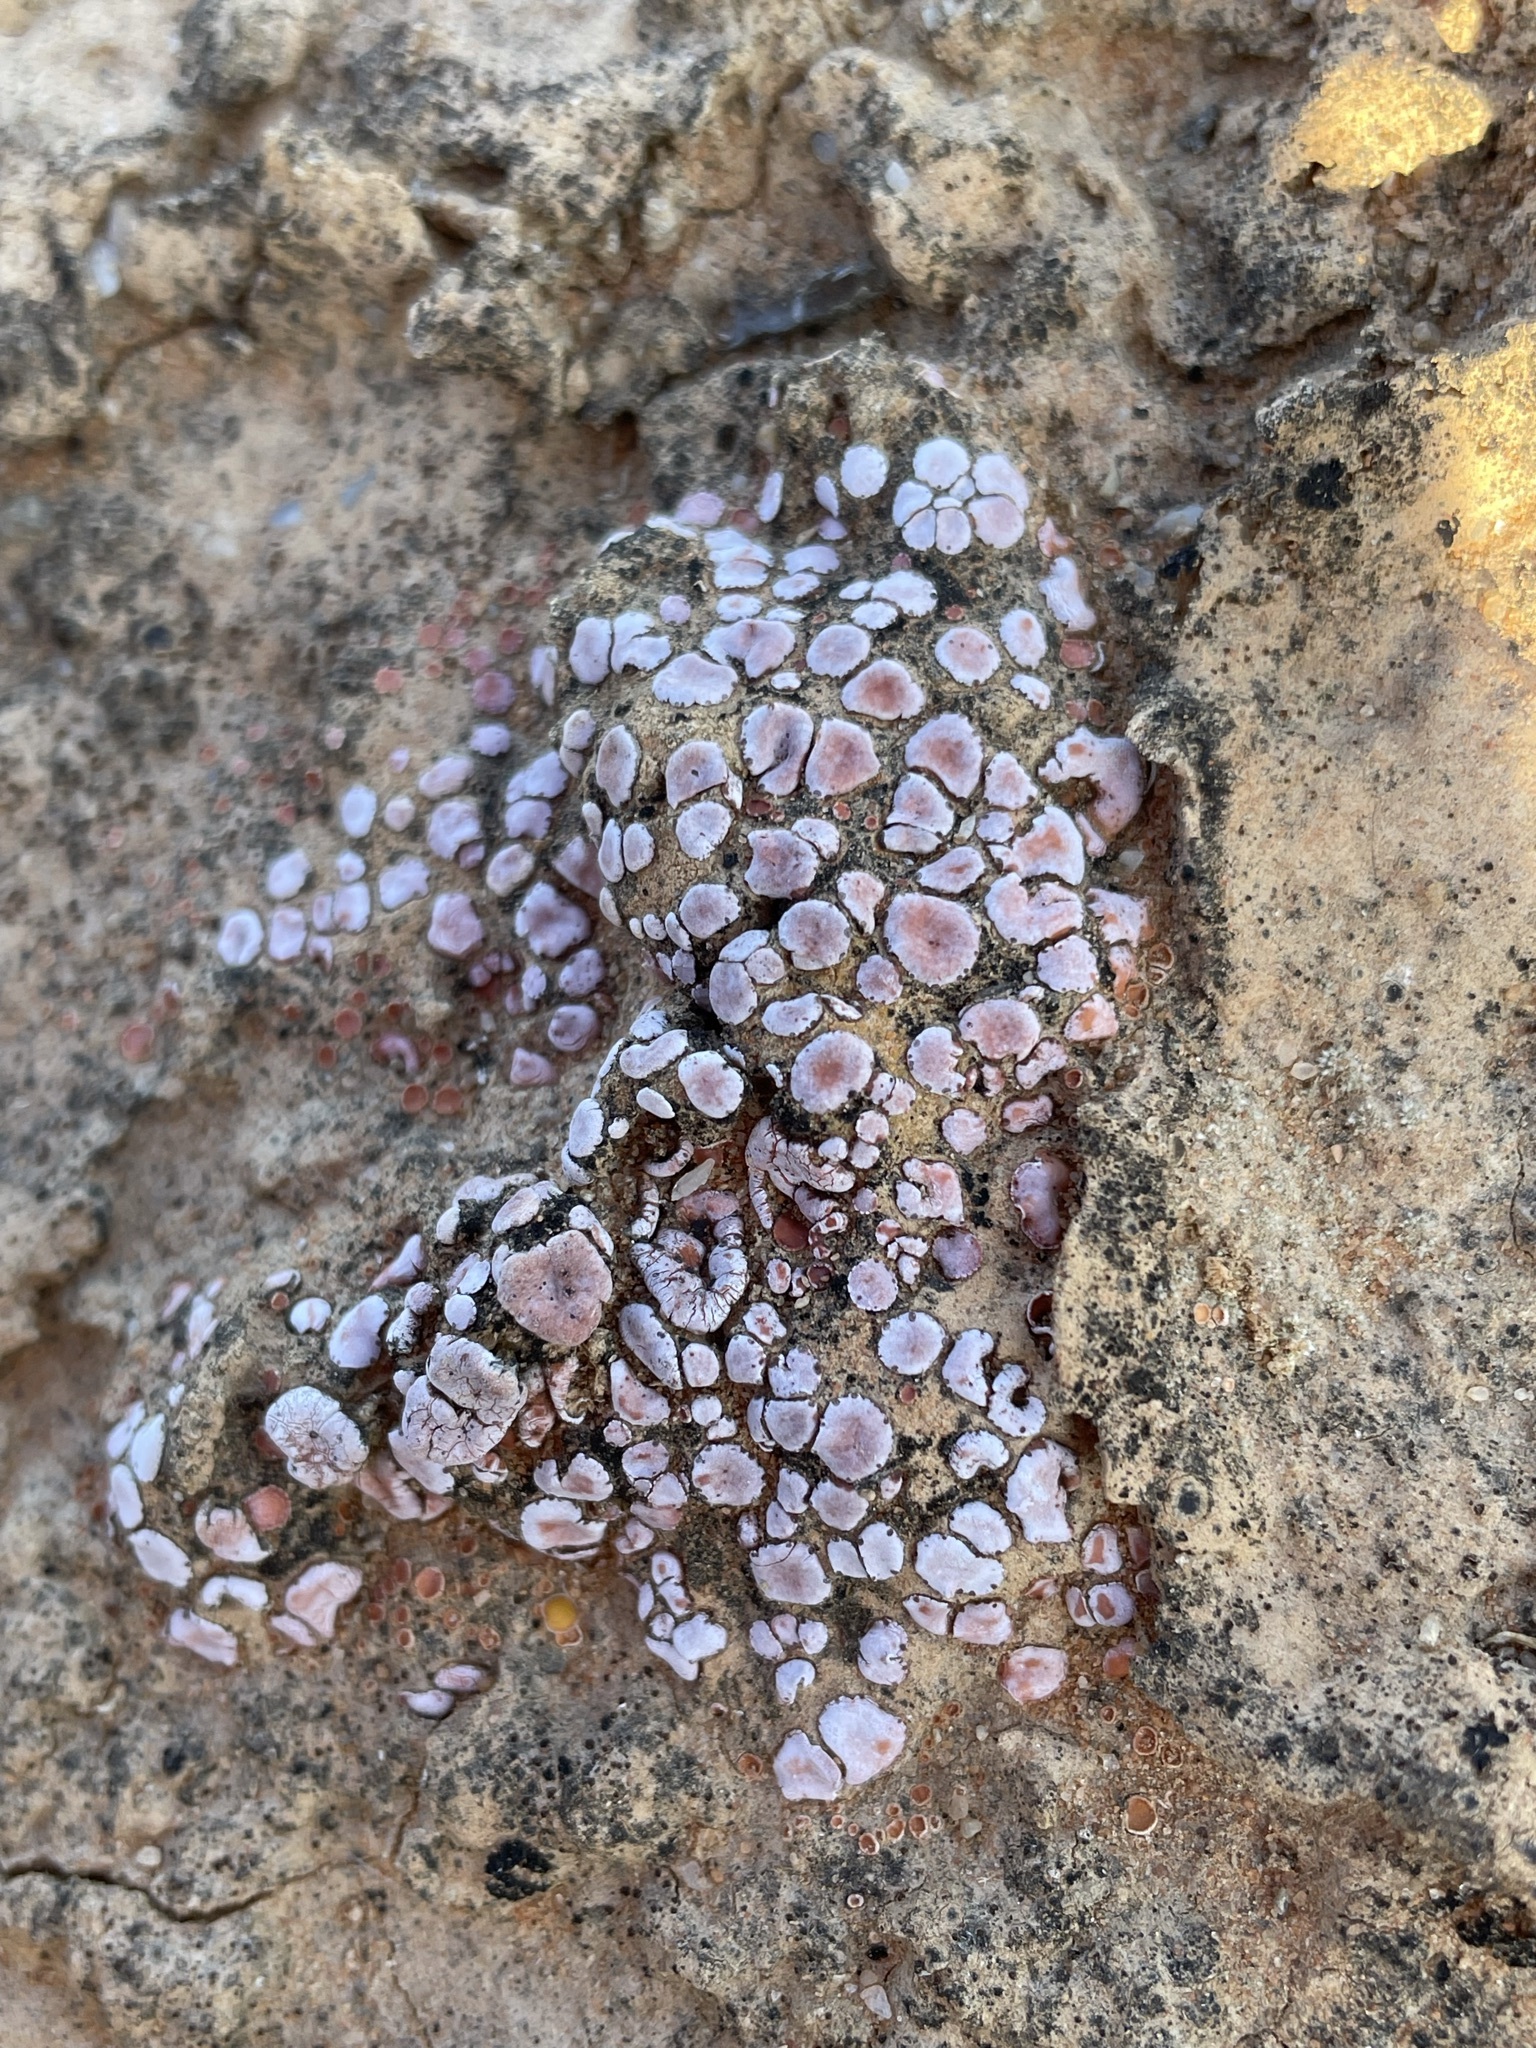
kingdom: Fungi
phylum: Ascomycota
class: Lecanoromycetes
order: Lecanorales
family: Psoraceae
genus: Psora
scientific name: Psora crenata
